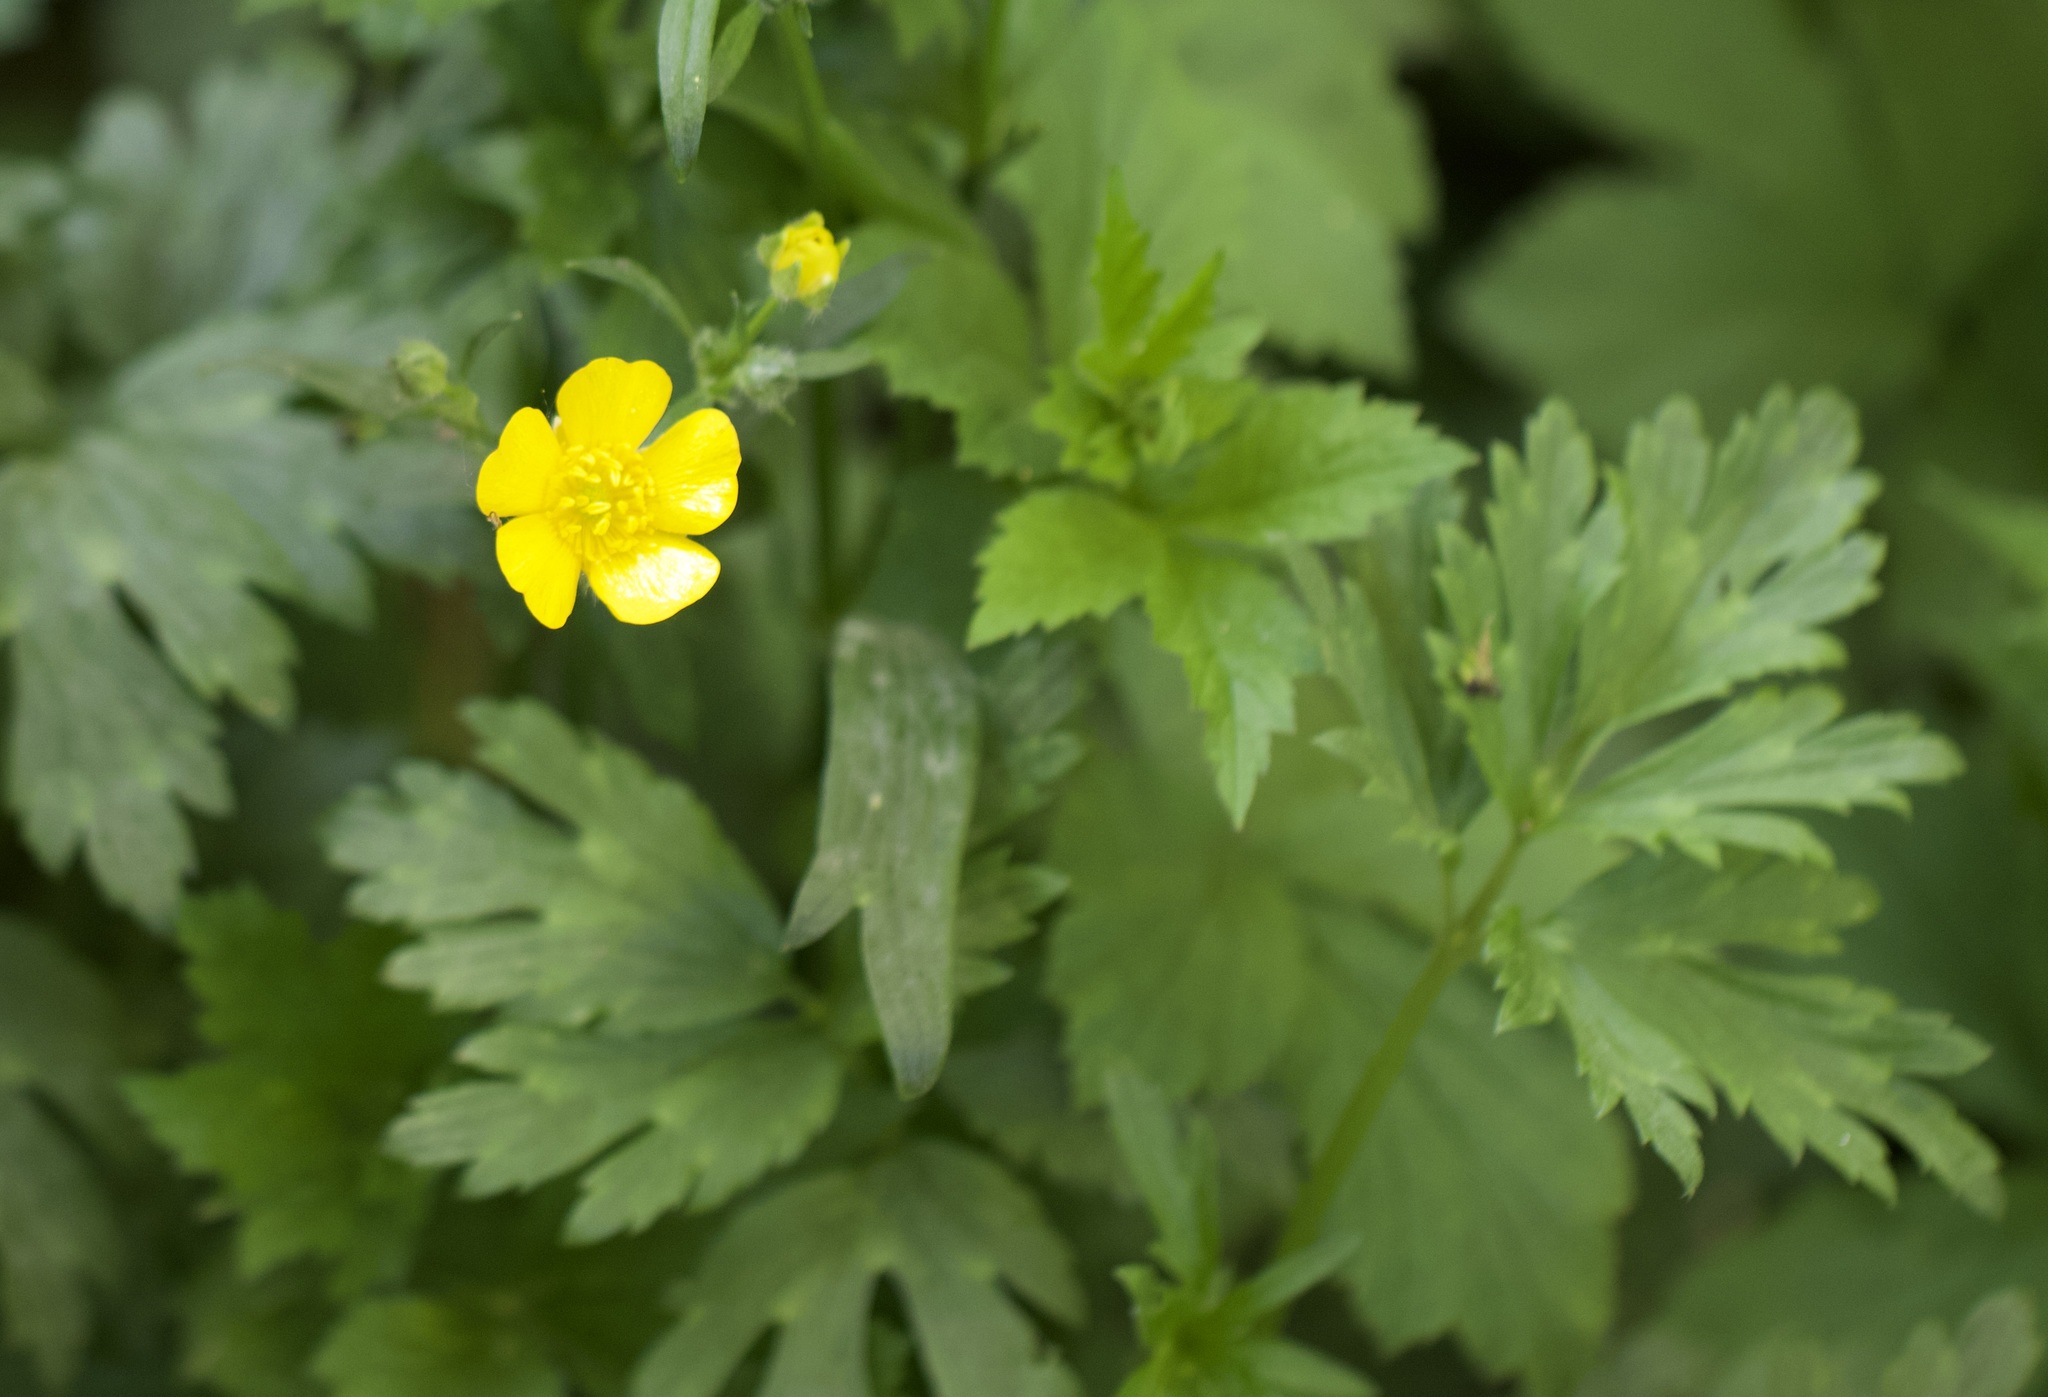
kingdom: Plantae
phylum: Tracheophyta
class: Magnoliopsida
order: Ranunculales
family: Ranunculaceae
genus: Ranunculus
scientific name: Ranunculus repens
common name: Creeping buttercup
